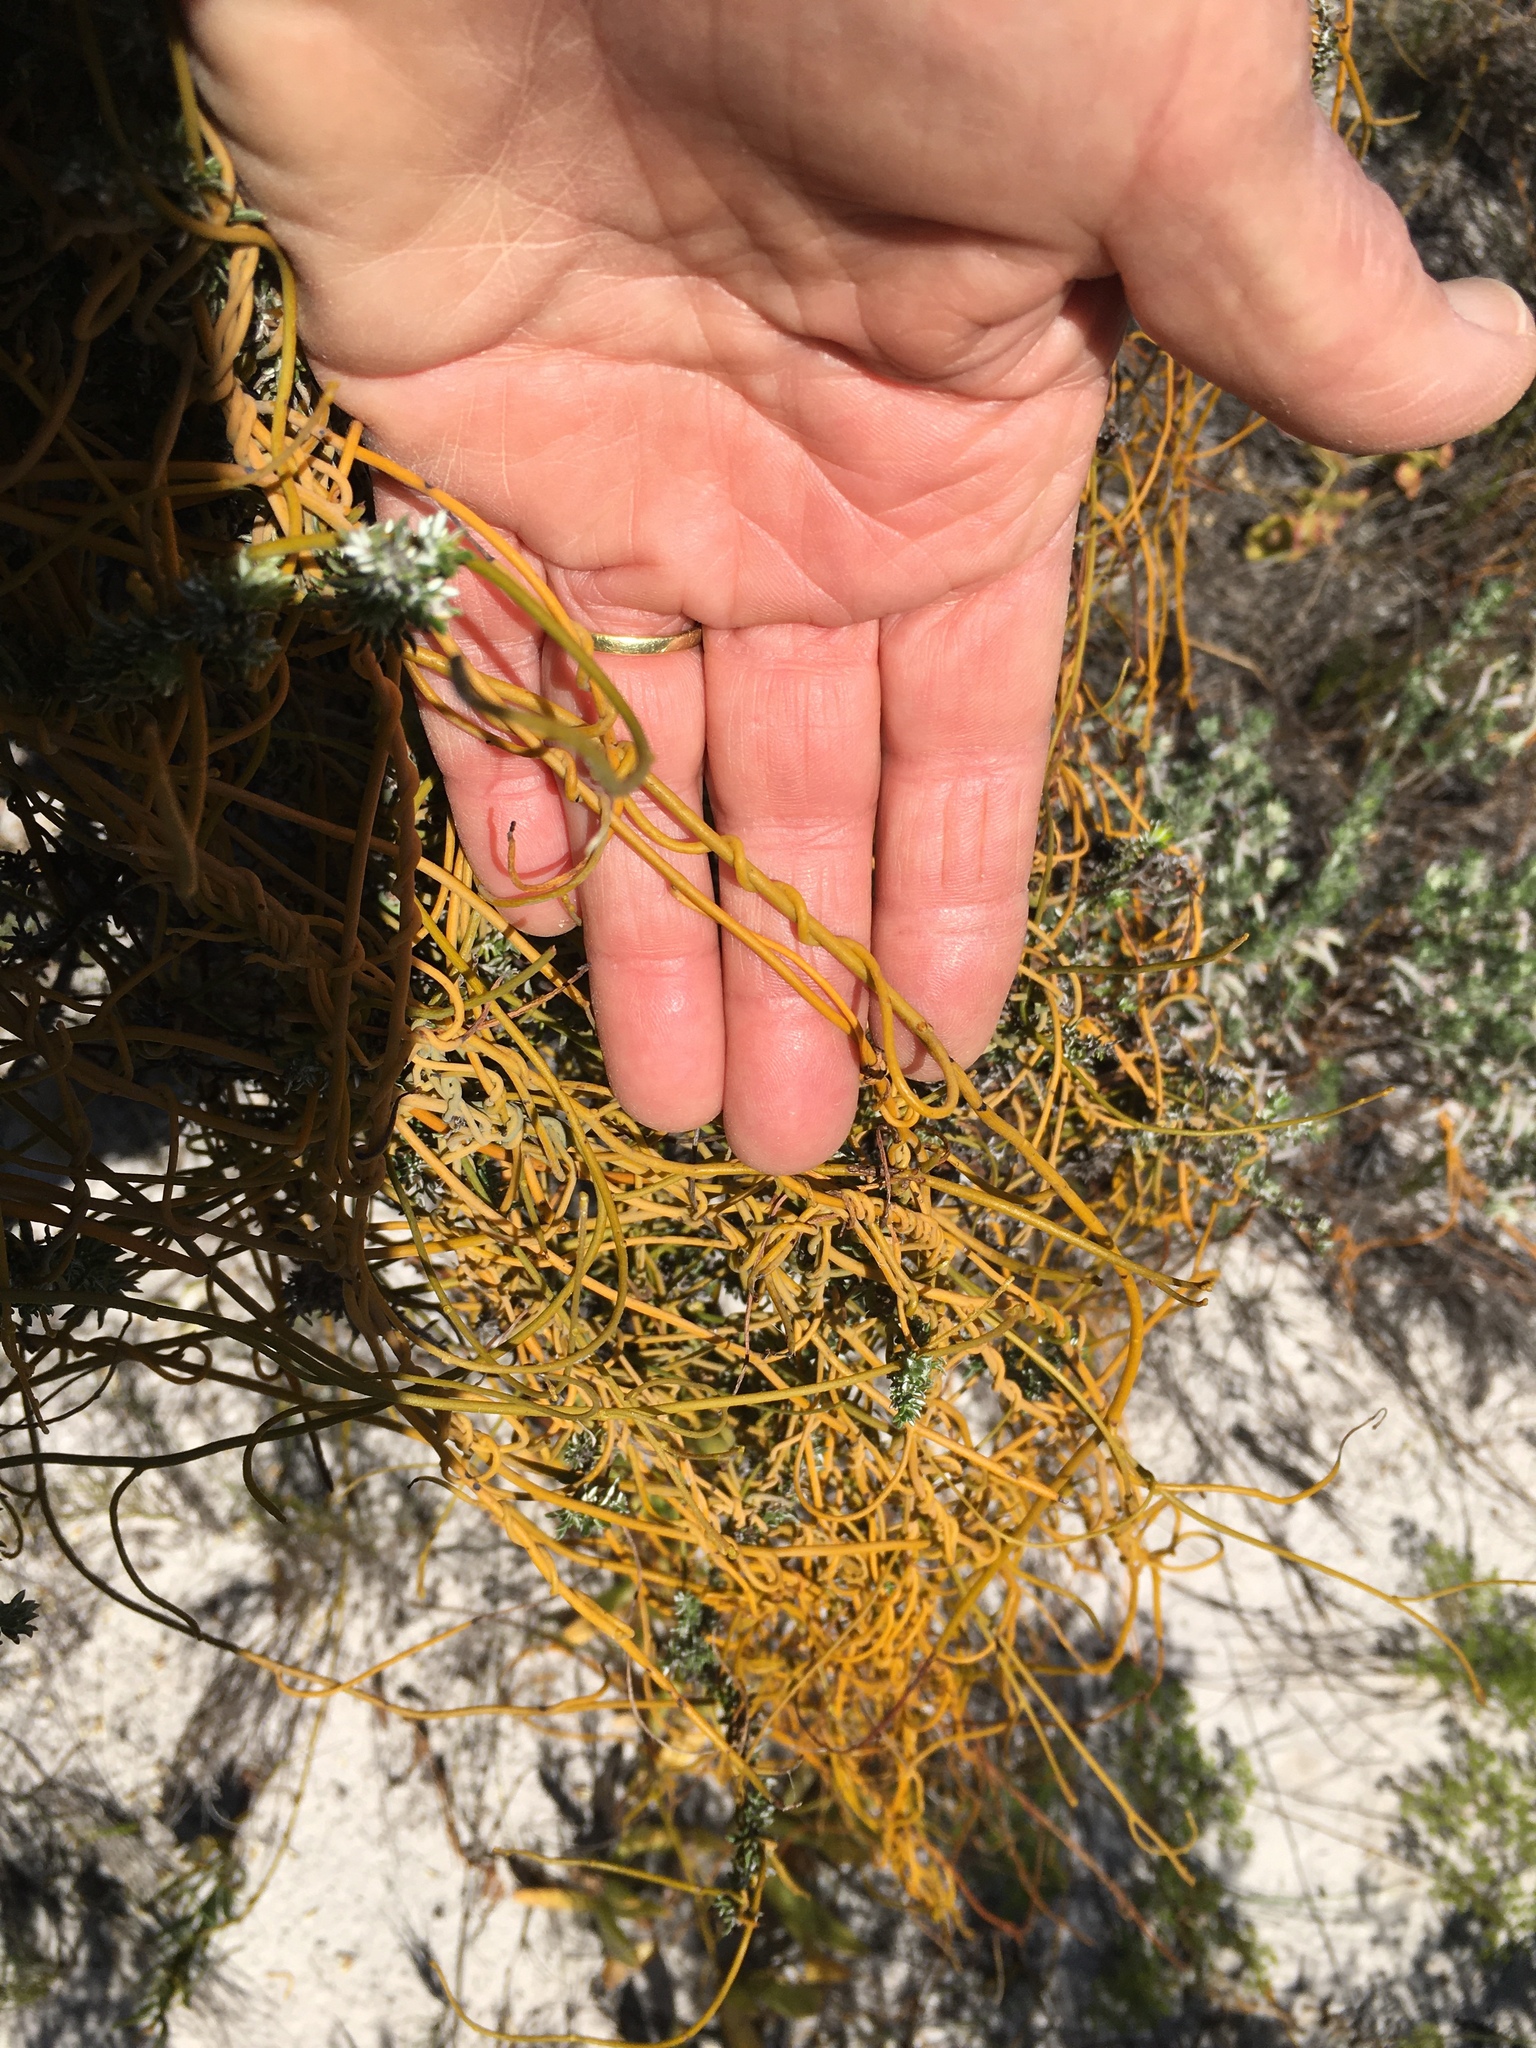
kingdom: Plantae
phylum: Tracheophyta
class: Magnoliopsida
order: Laurales
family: Lauraceae
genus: Cassytha
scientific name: Cassytha ciliolata
